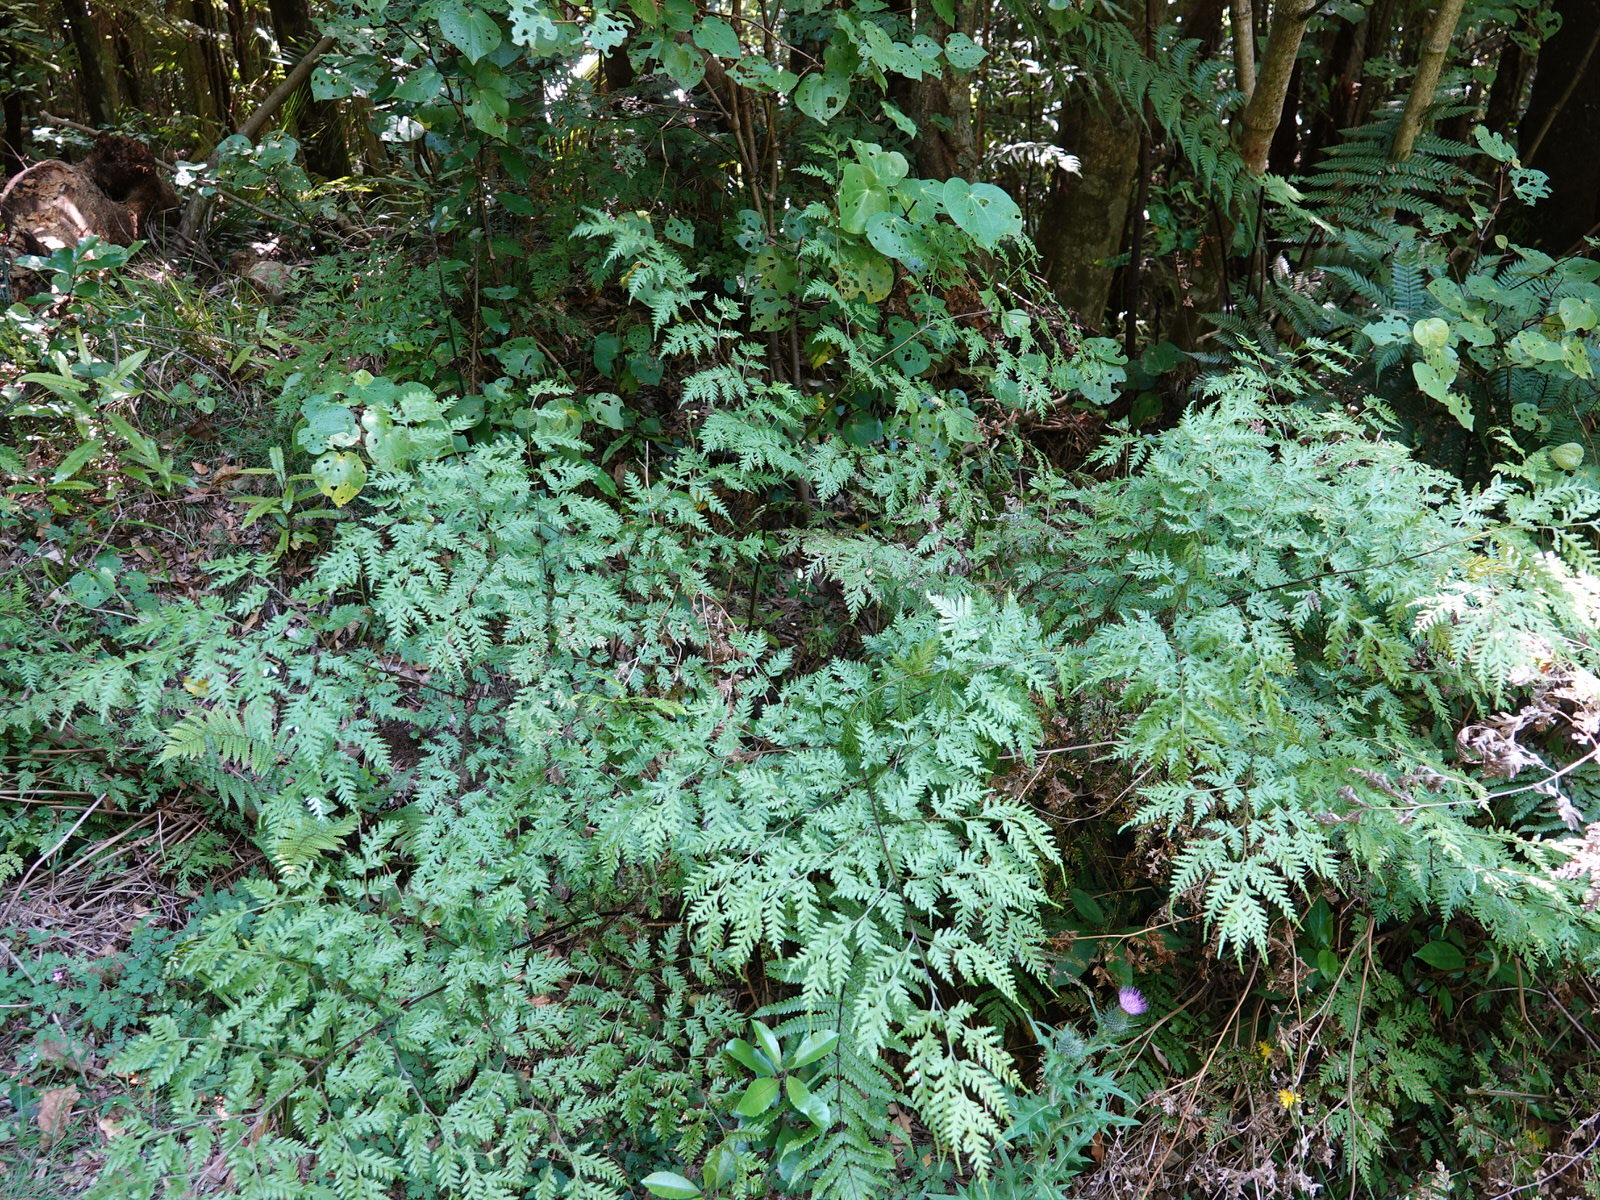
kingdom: Plantae
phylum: Tracheophyta
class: Polypodiopsida
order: Polypodiales
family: Pteridaceae
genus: Pteris
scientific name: Pteris macilenta
